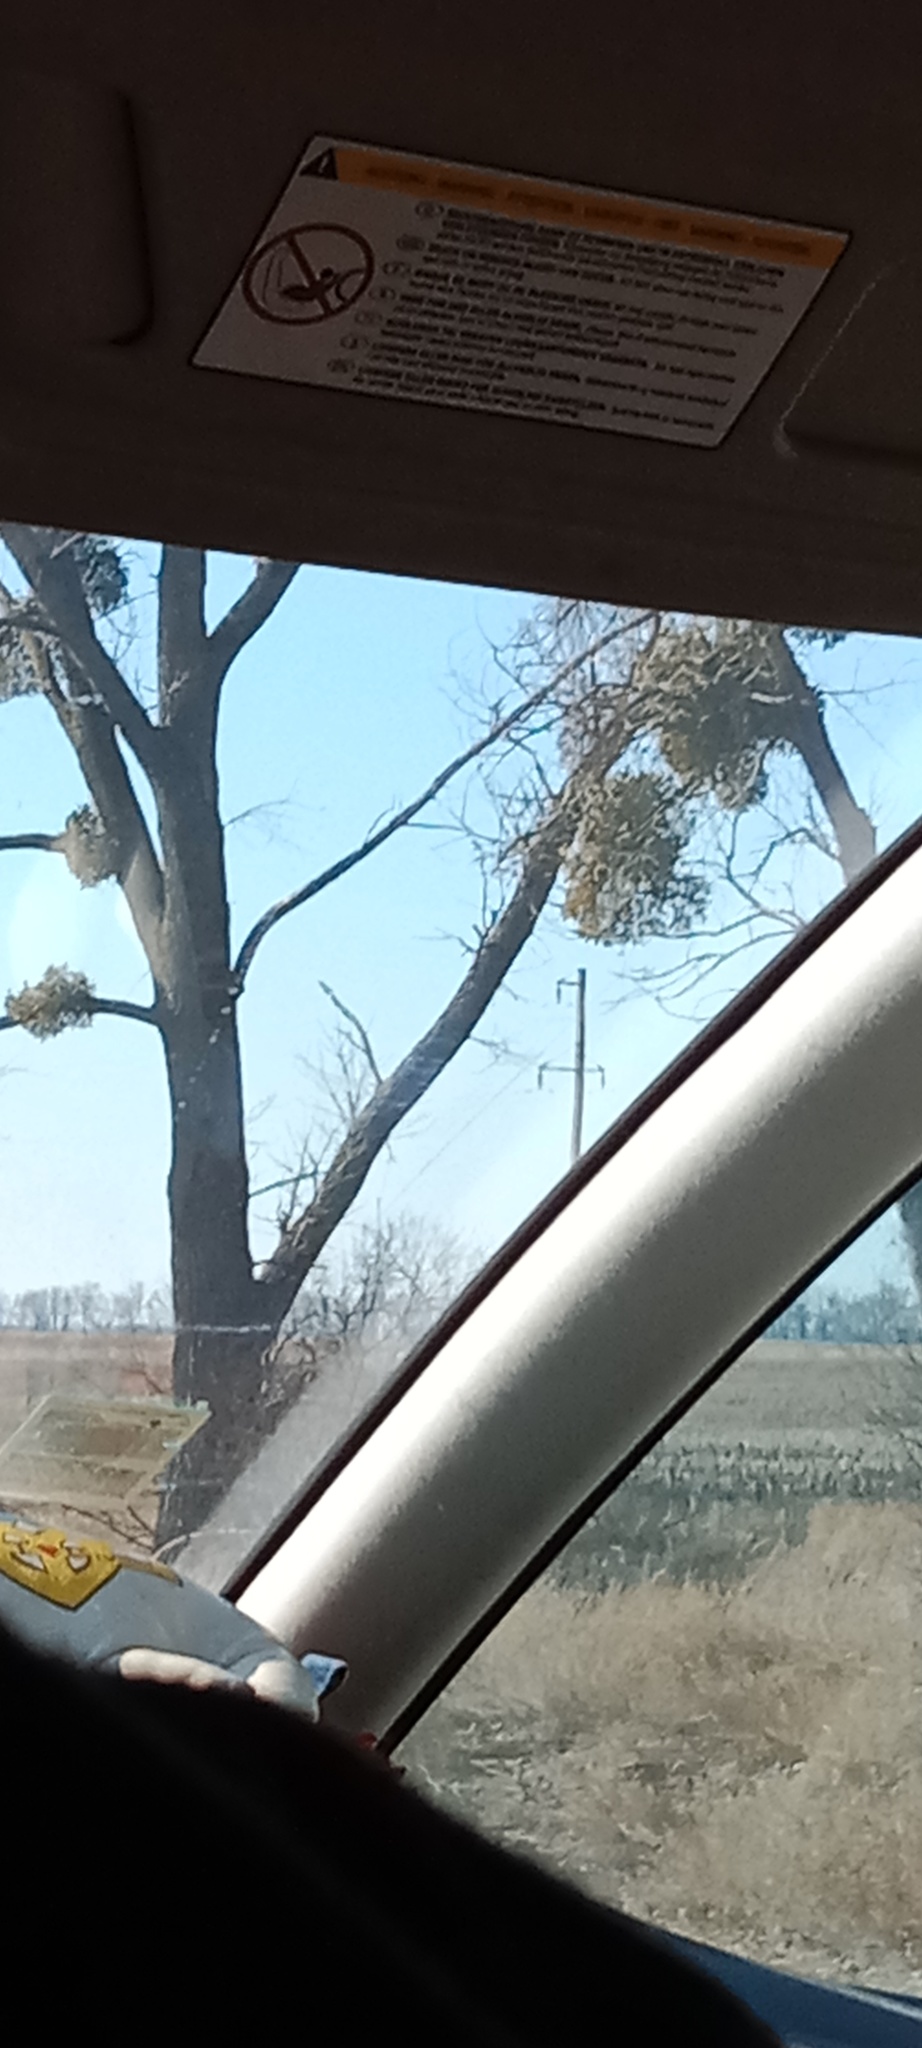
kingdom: Plantae
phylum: Tracheophyta
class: Magnoliopsida
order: Santalales
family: Viscaceae
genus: Viscum
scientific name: Viscum album
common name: Mistletoe
